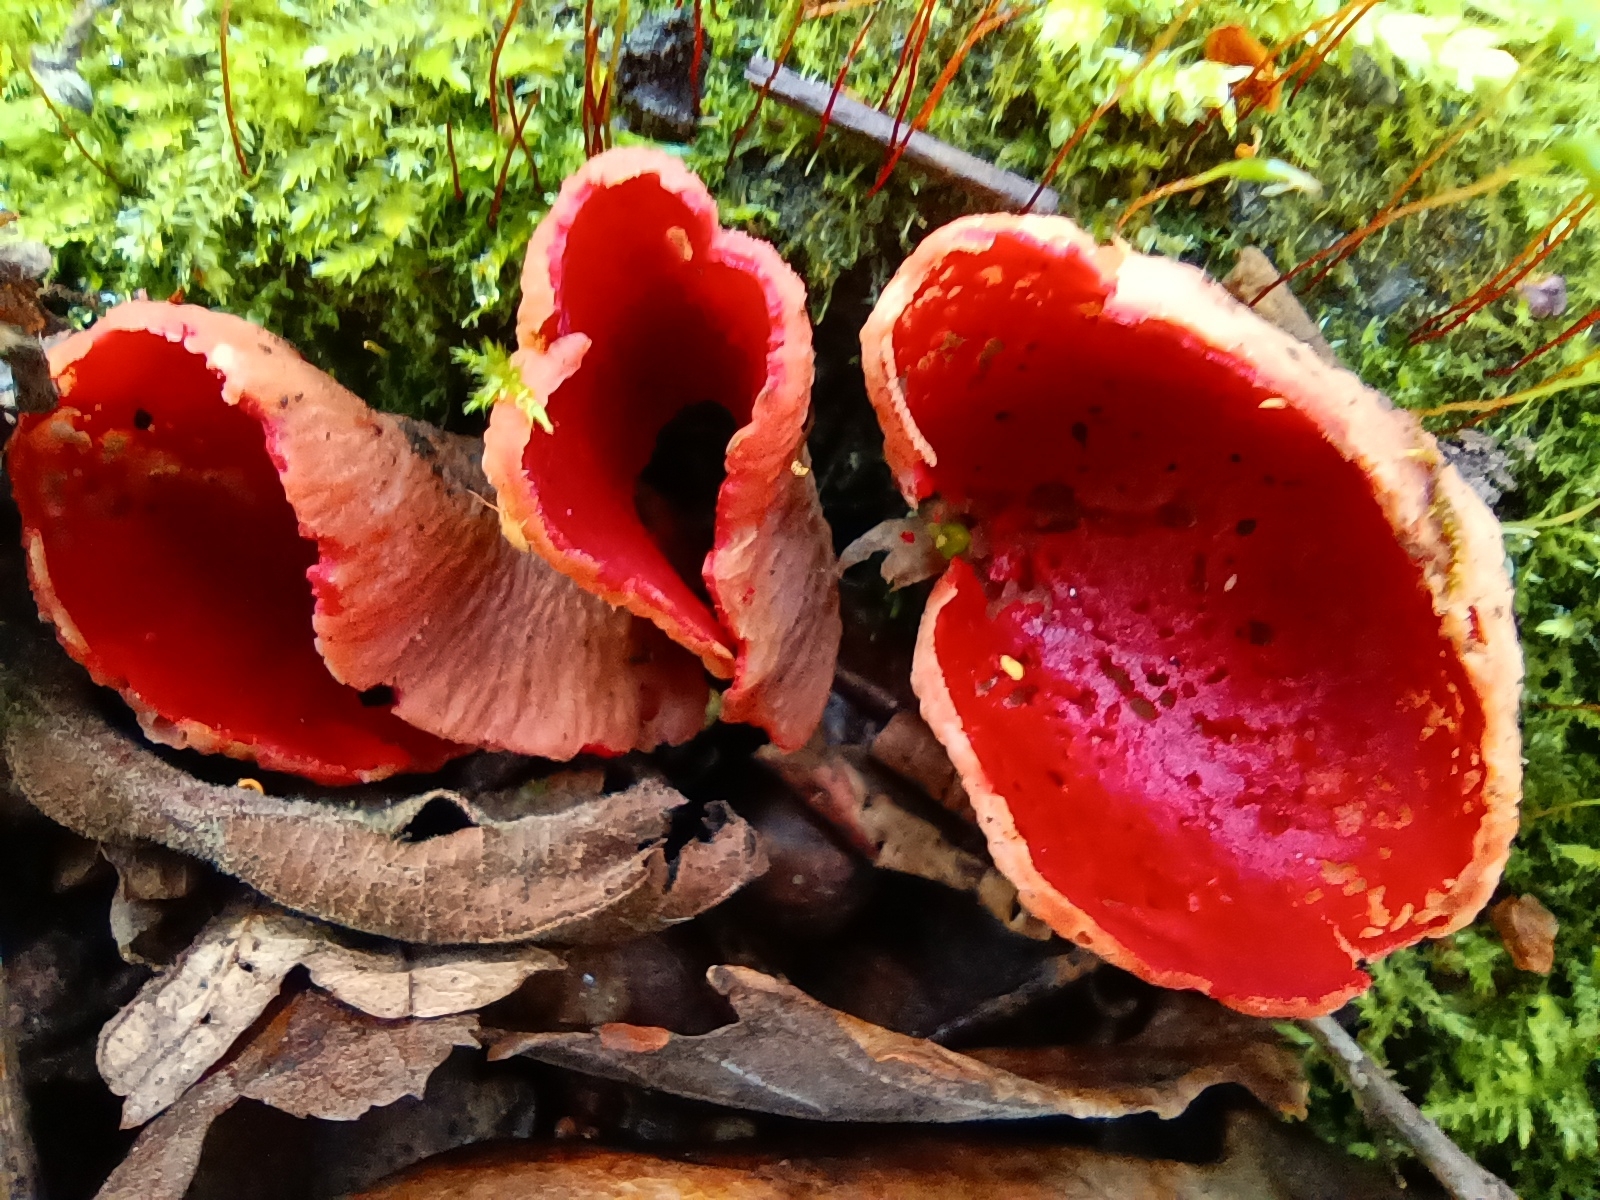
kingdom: Fungi
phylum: Ascomycota
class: Pezizomycetes
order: Pezizales
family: Sarcoscyphaceae
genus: Sarcoscypha
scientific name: Sarcoscypha
